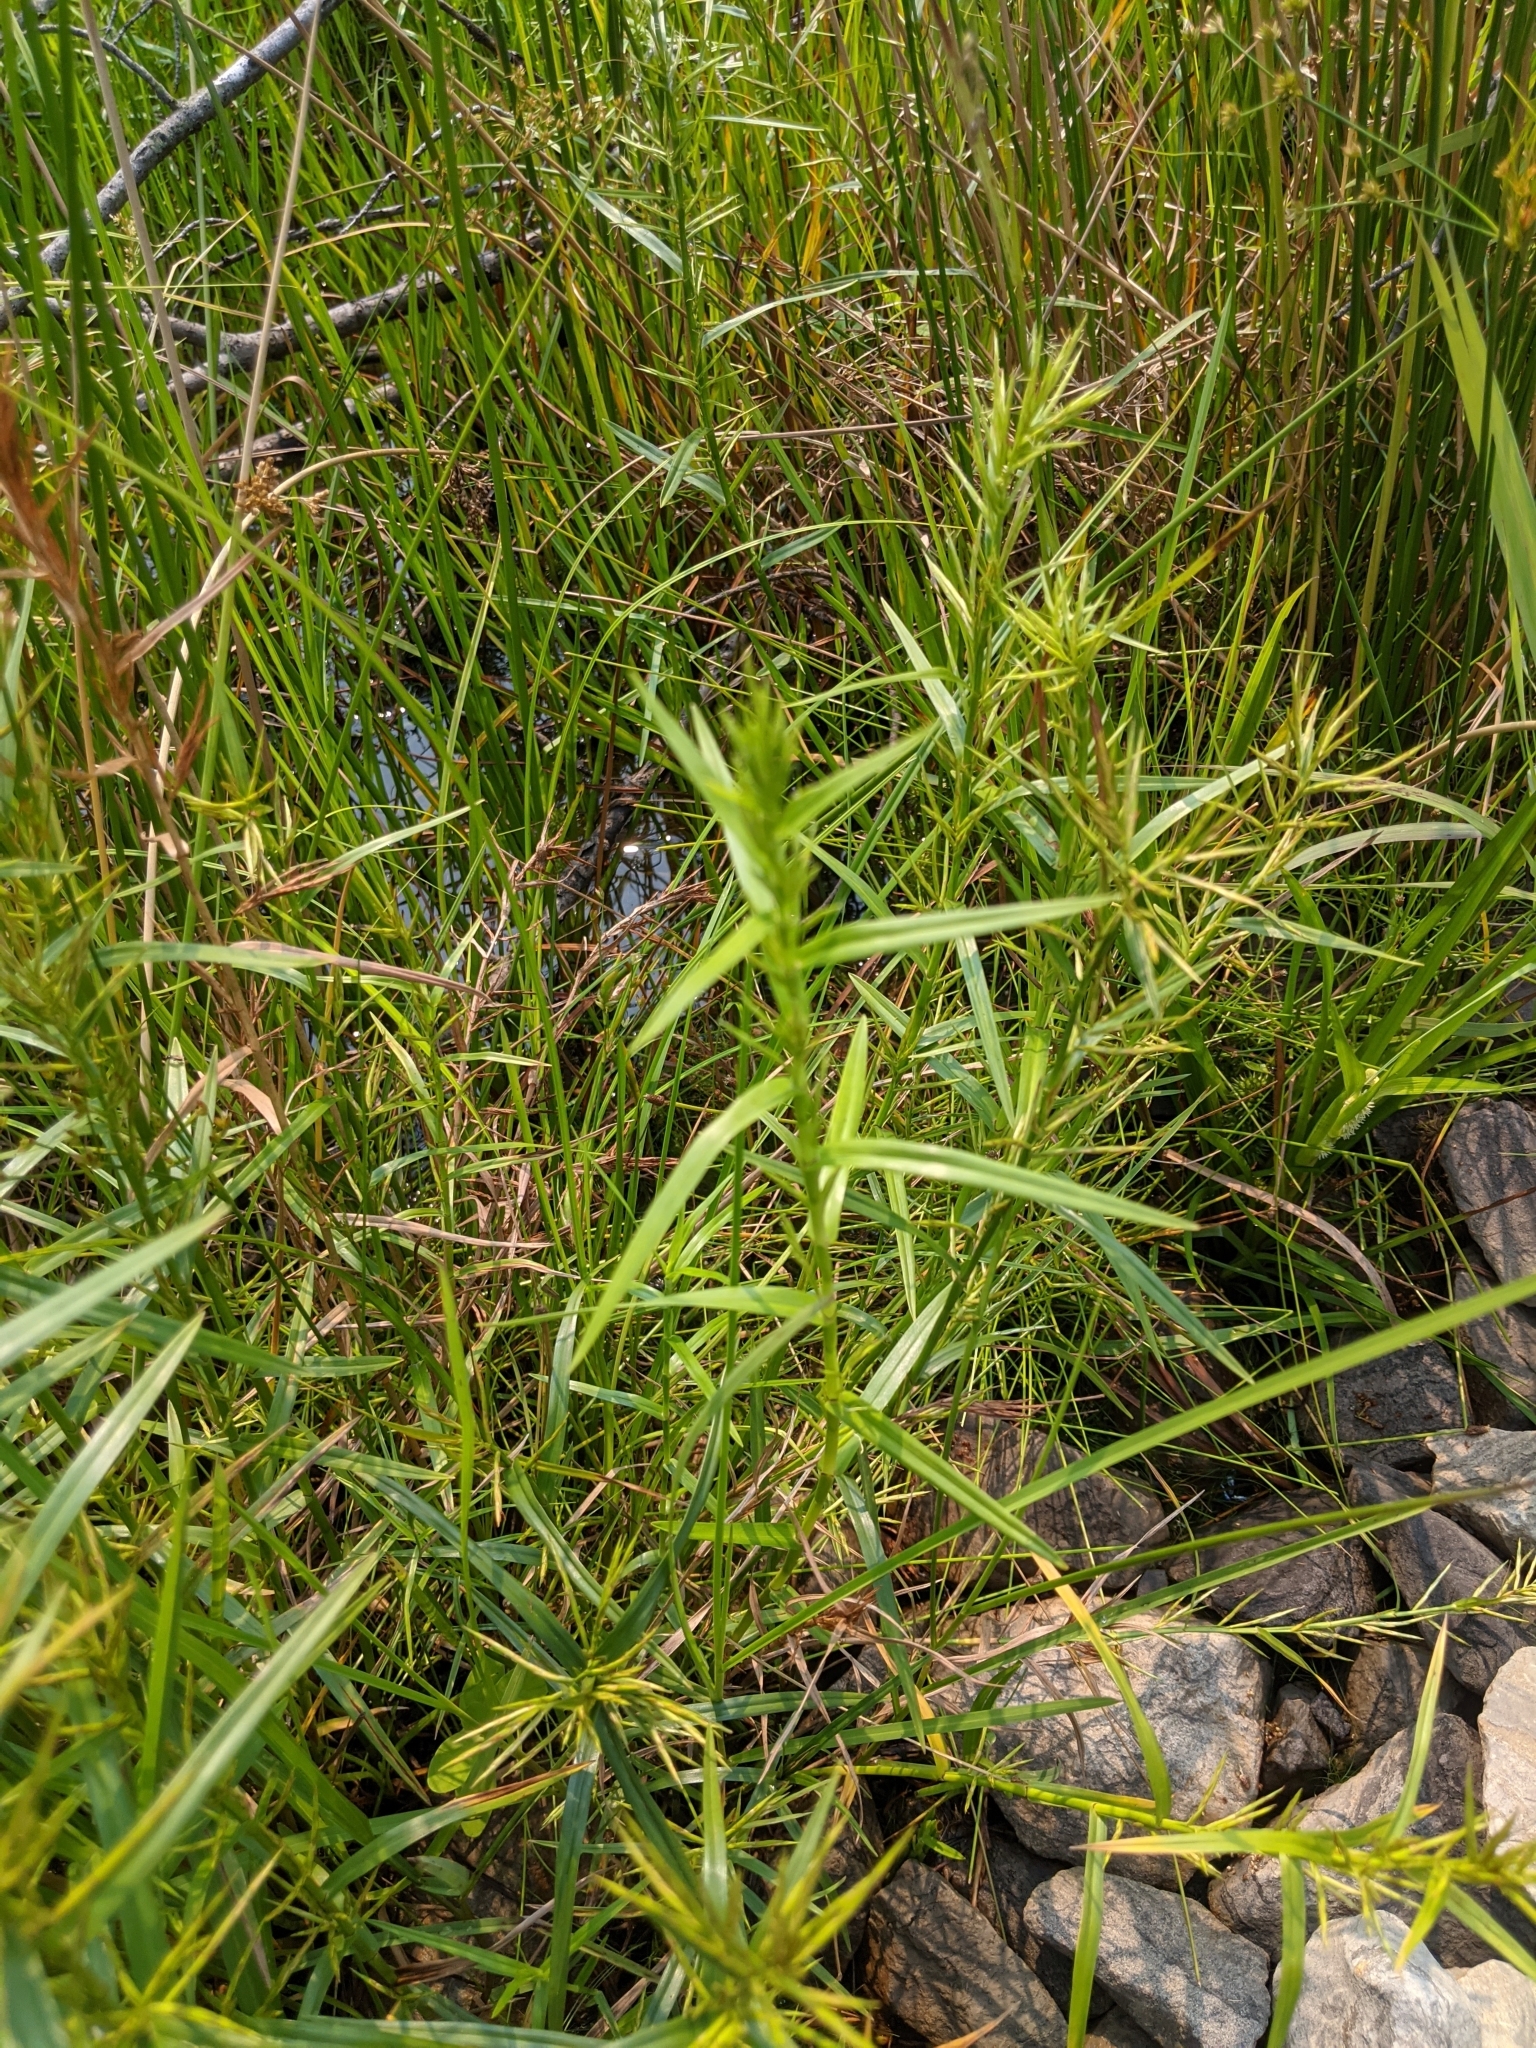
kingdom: Plantae
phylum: Tracheophyta
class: Liliopsida
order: Poales
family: Cyperaceae
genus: Dulichium
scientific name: Dulichium arundinaceum
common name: Three-way sedge
